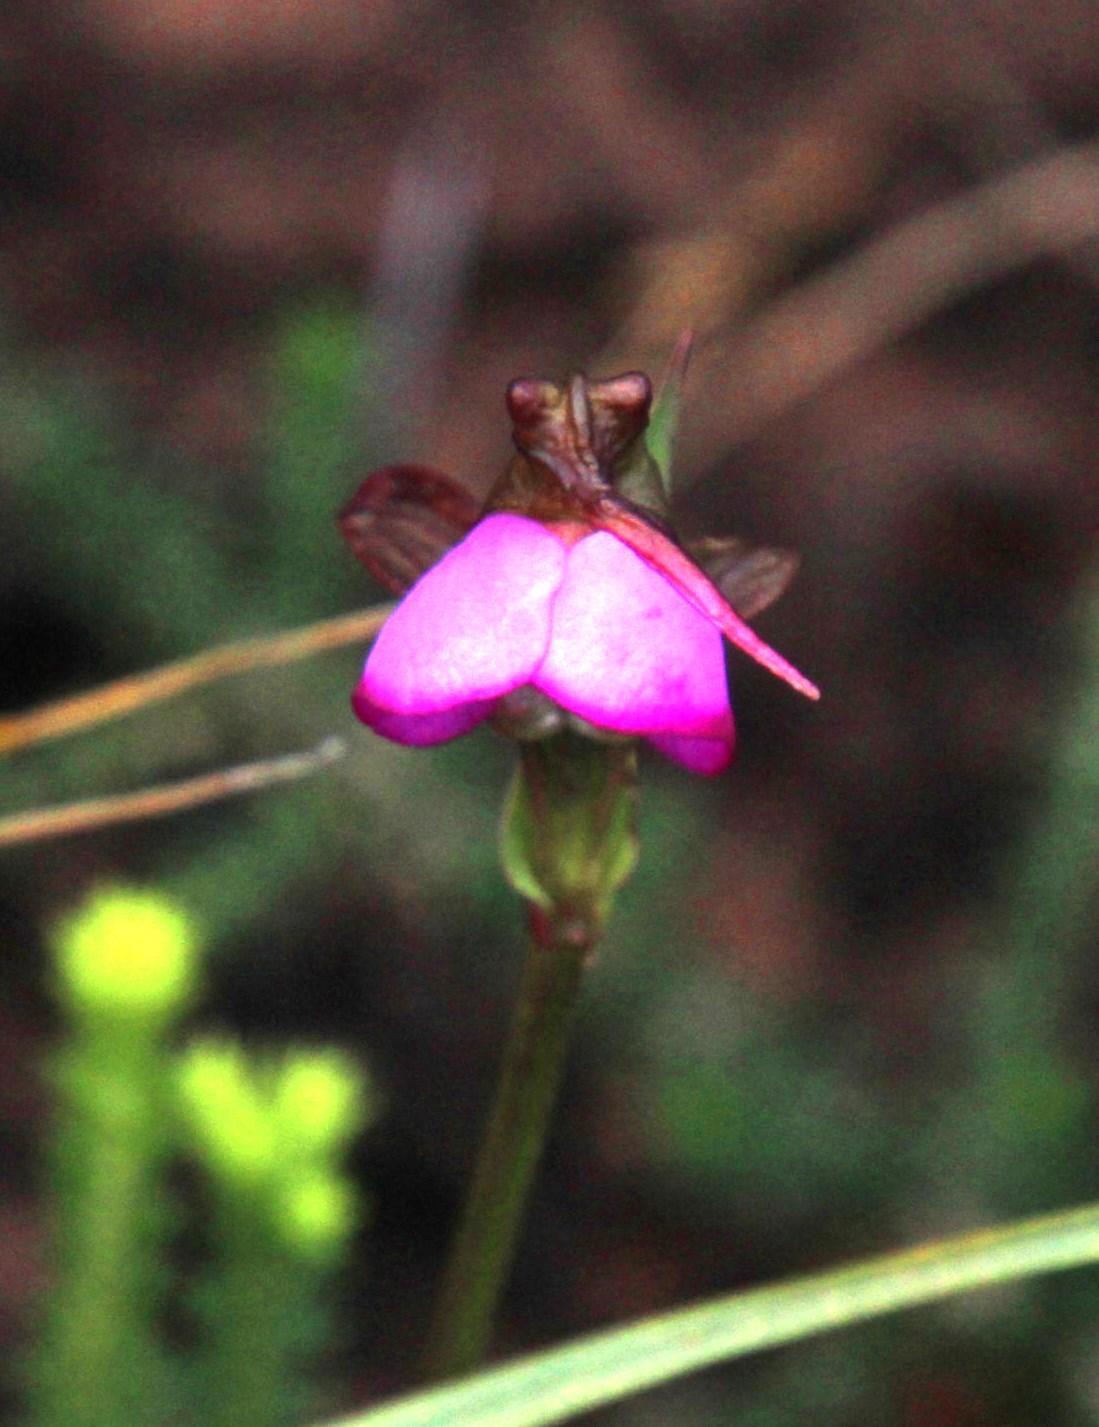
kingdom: Plantae
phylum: Tracheophyta
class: Liliopsida
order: Asparagales
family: Orchidaceae
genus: Disperis
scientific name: Disperis capensis
